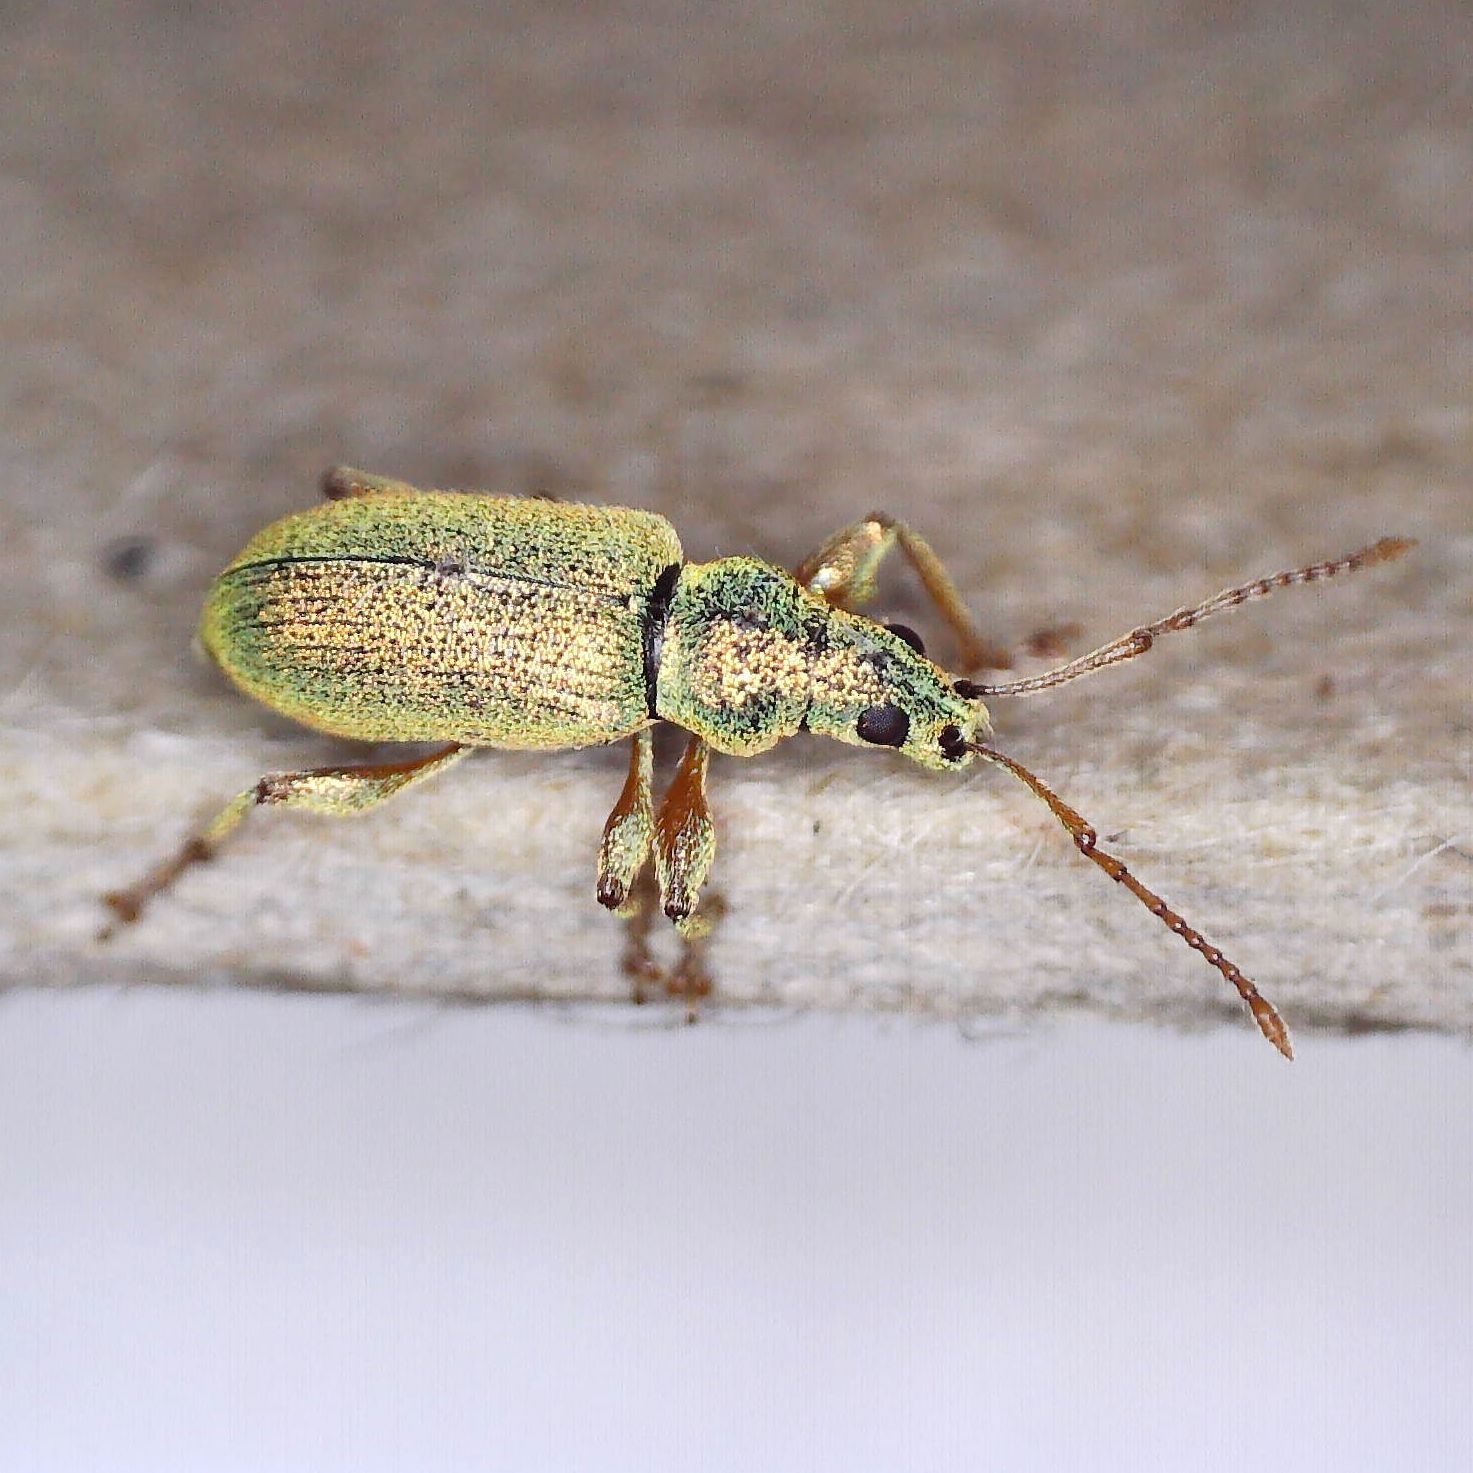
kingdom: Animalia
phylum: Arthropoda
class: Insecta
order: Coleoptera
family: Curculionidae
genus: Phyllobius
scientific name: Phyllobius argentatus
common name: Silver-green leaf weevil
